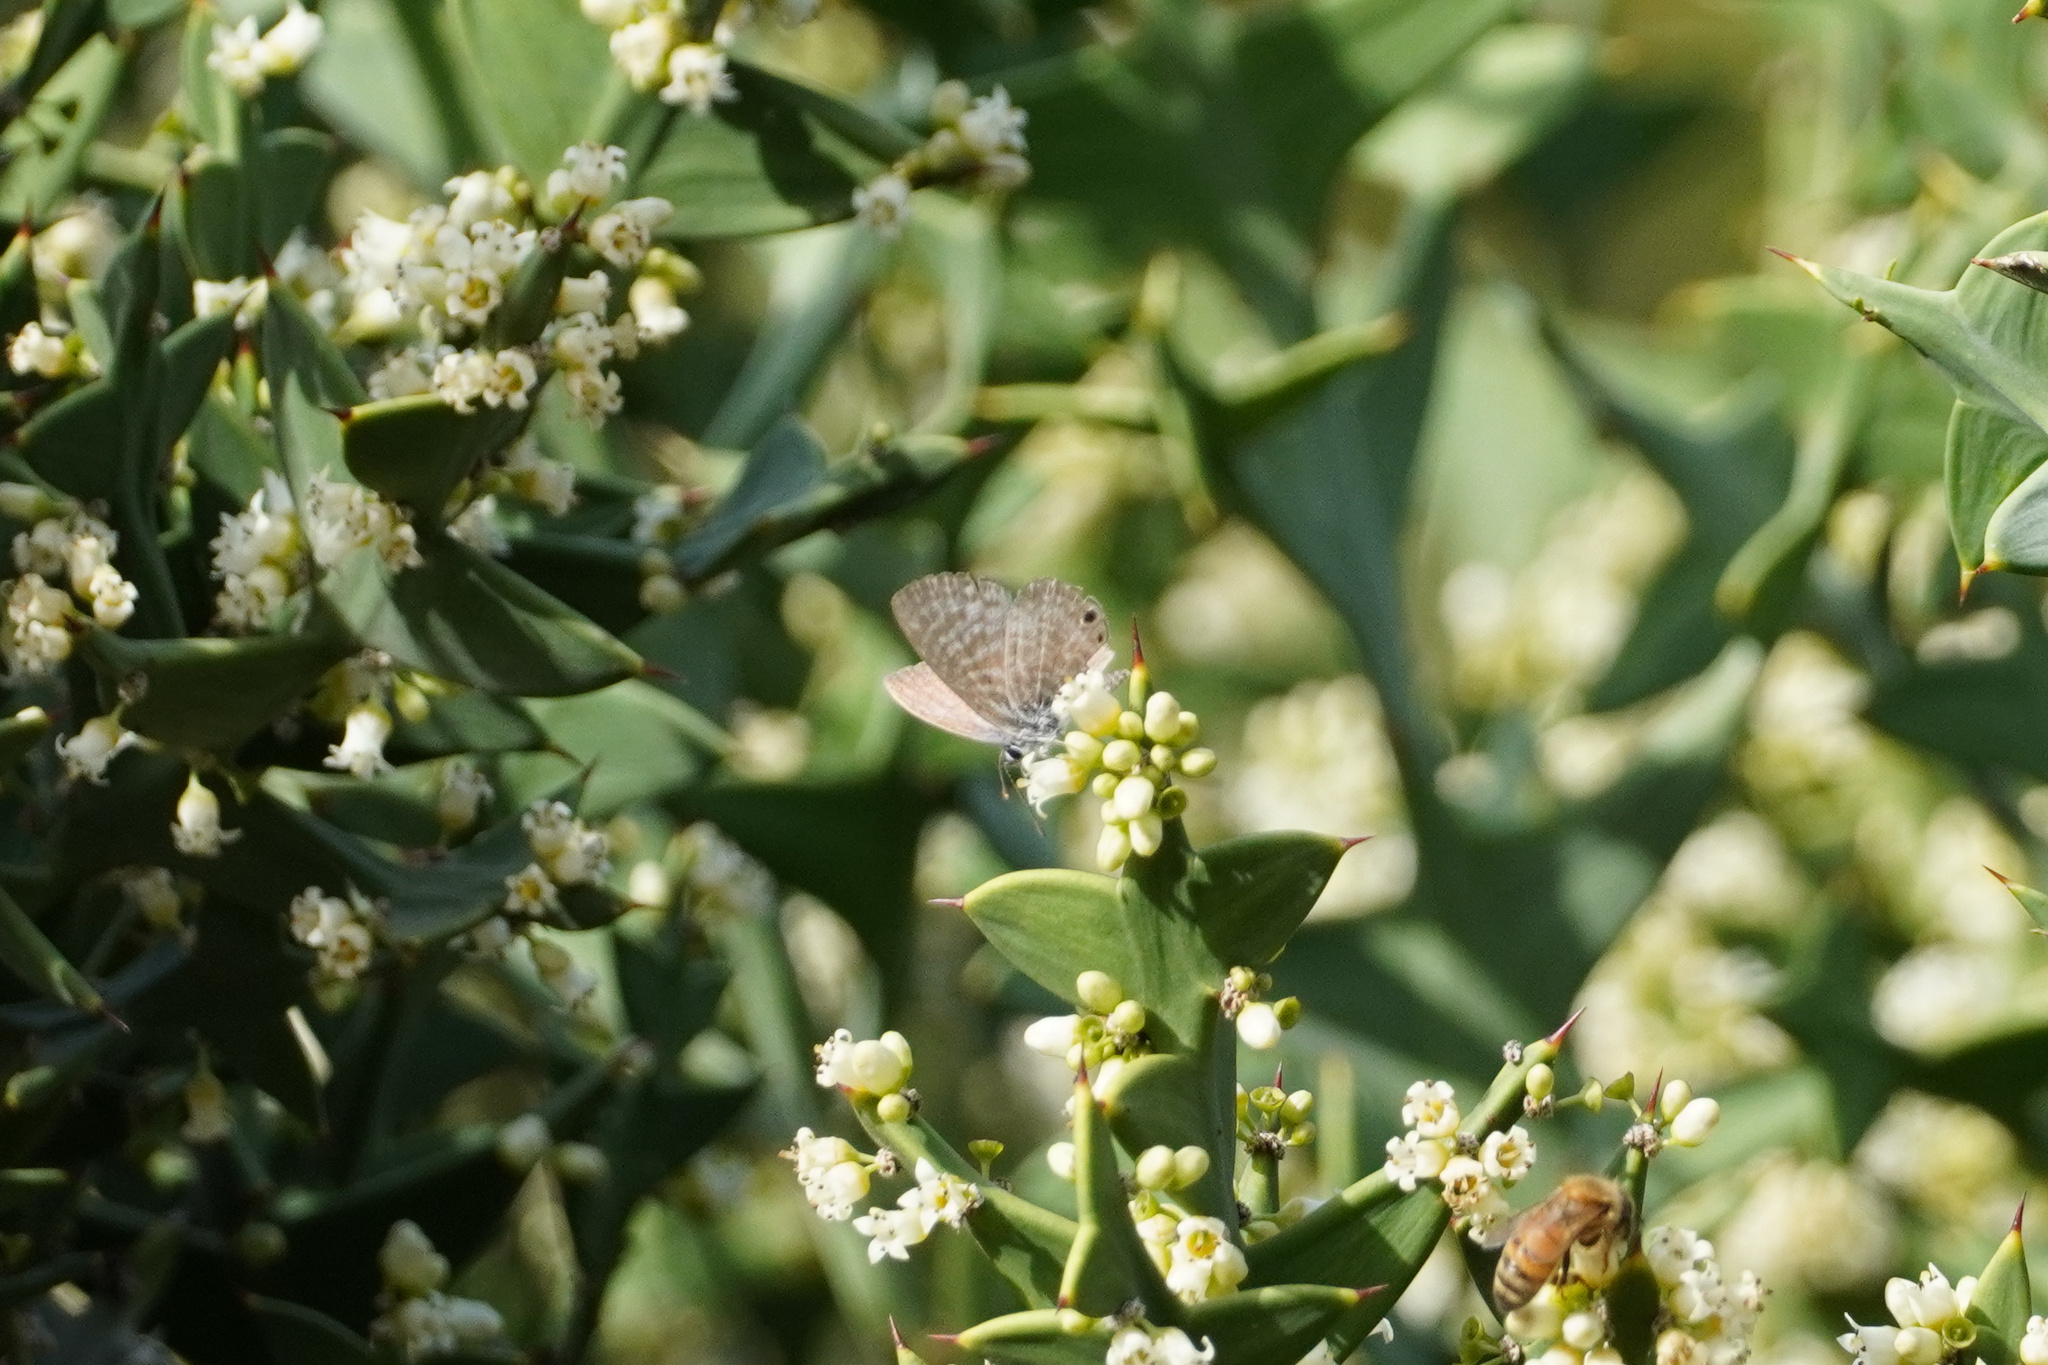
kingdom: Animalia
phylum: Arthropoda
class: Insecta
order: Lepidoptera
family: Lycaenidae
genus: Leptotes
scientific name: Leptotes marina
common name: Marine blue
